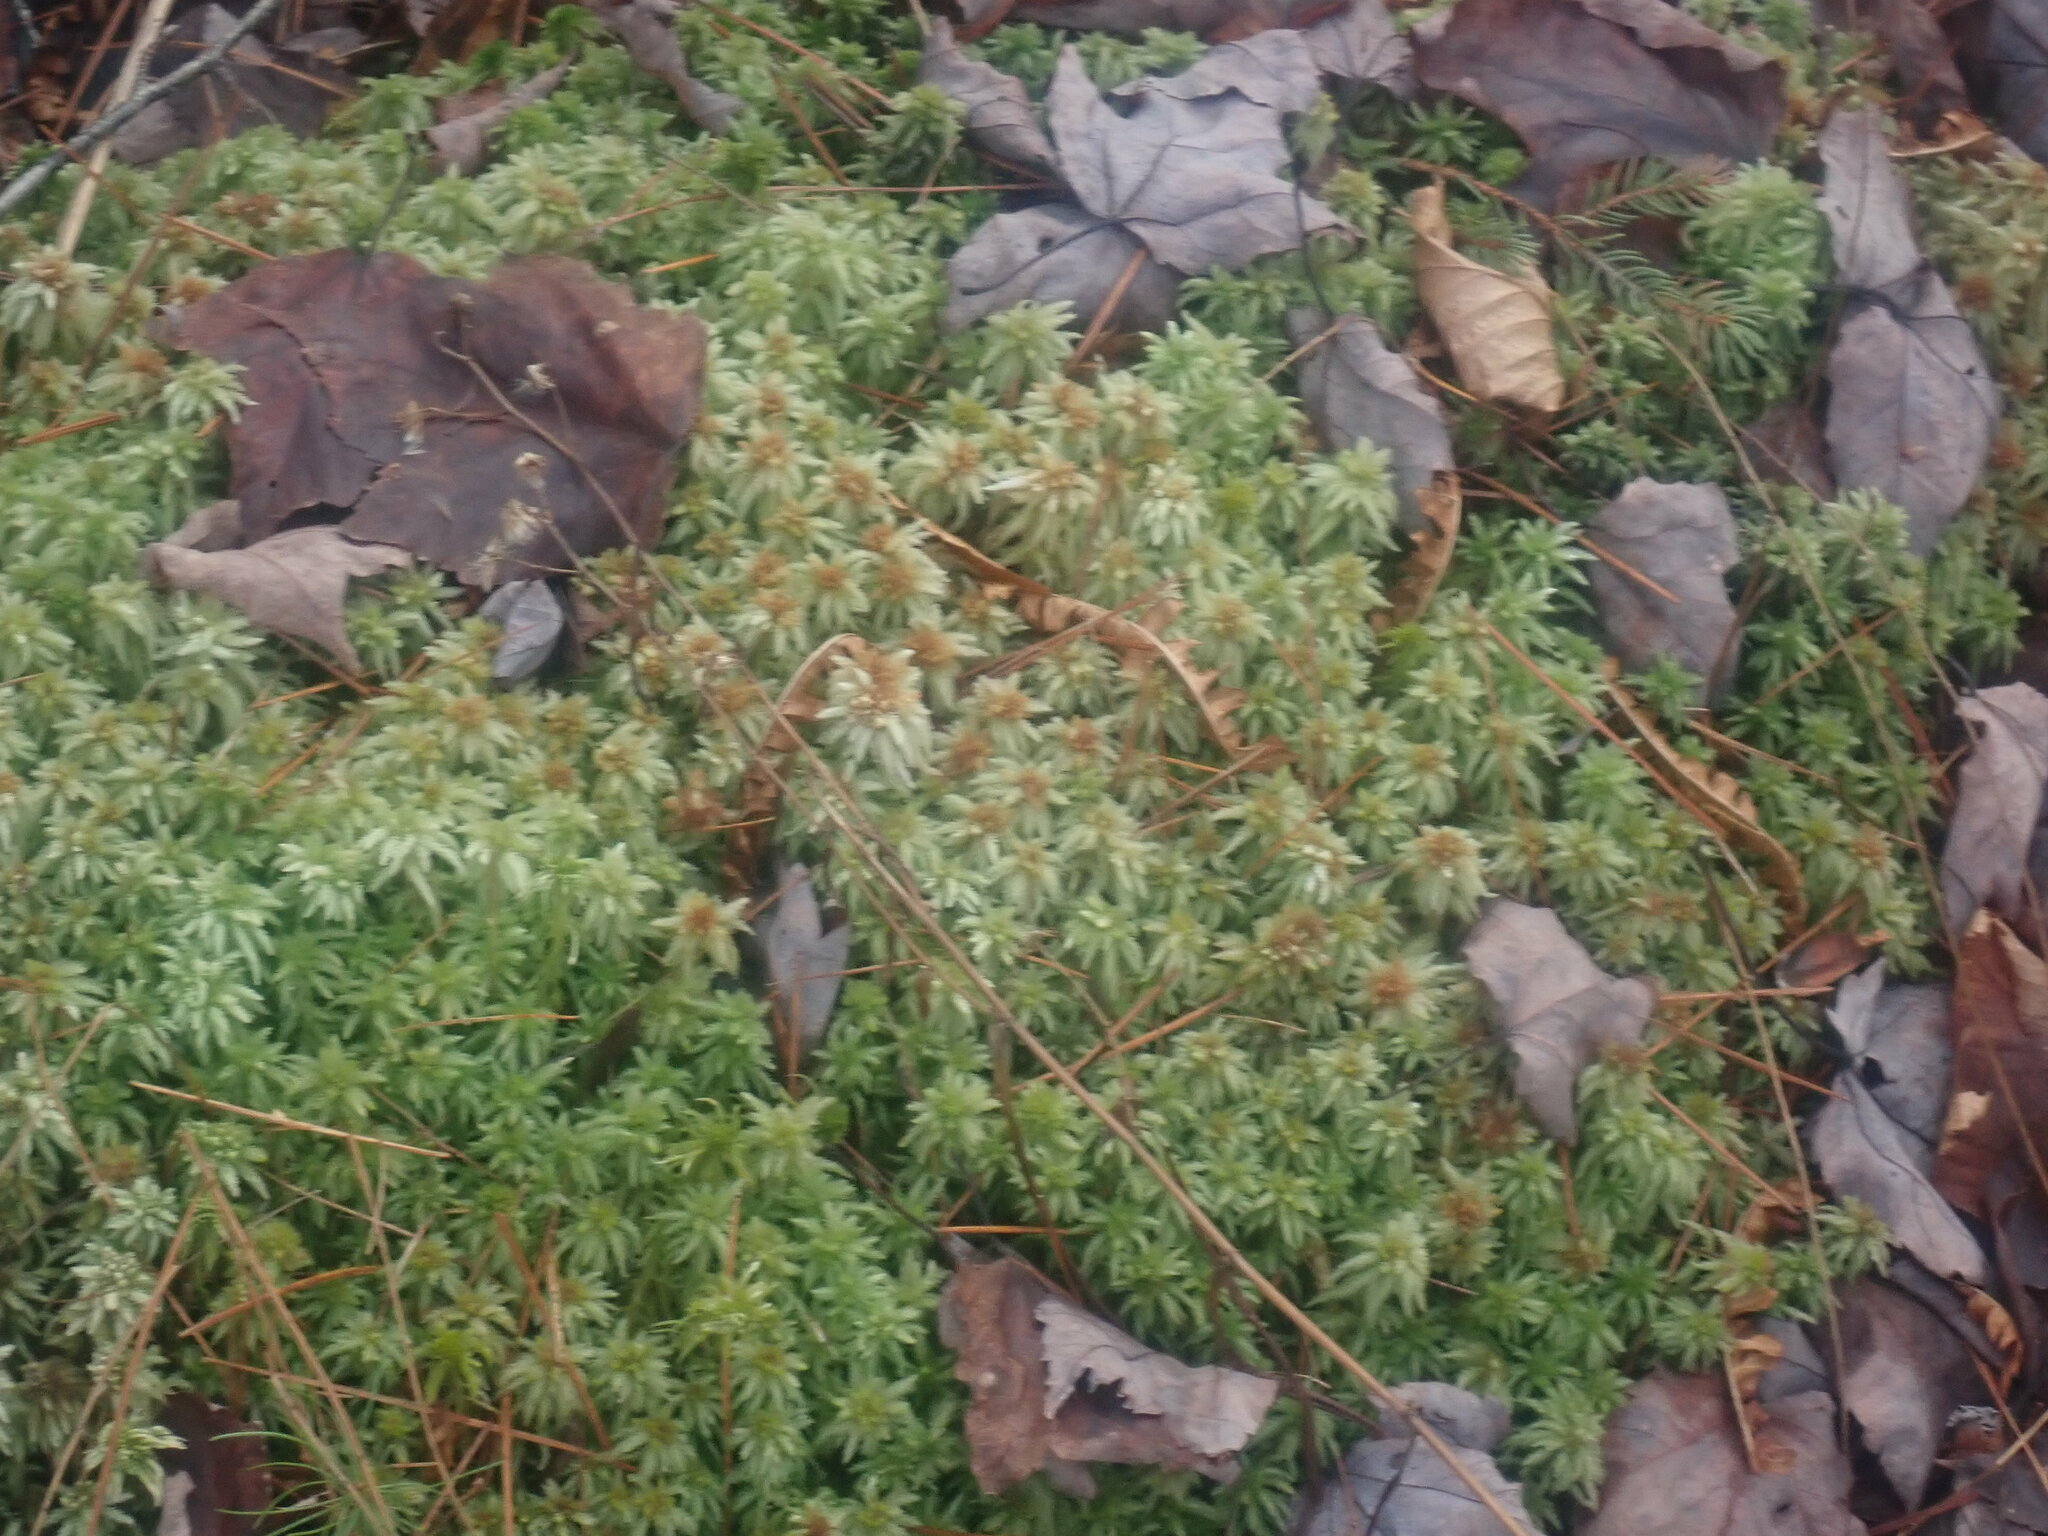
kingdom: Plantae
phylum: Bryophyta
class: Sphagnopsida
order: Sphagnales
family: Sphagnaceae
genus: Sphagnum
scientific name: Sphagnum
